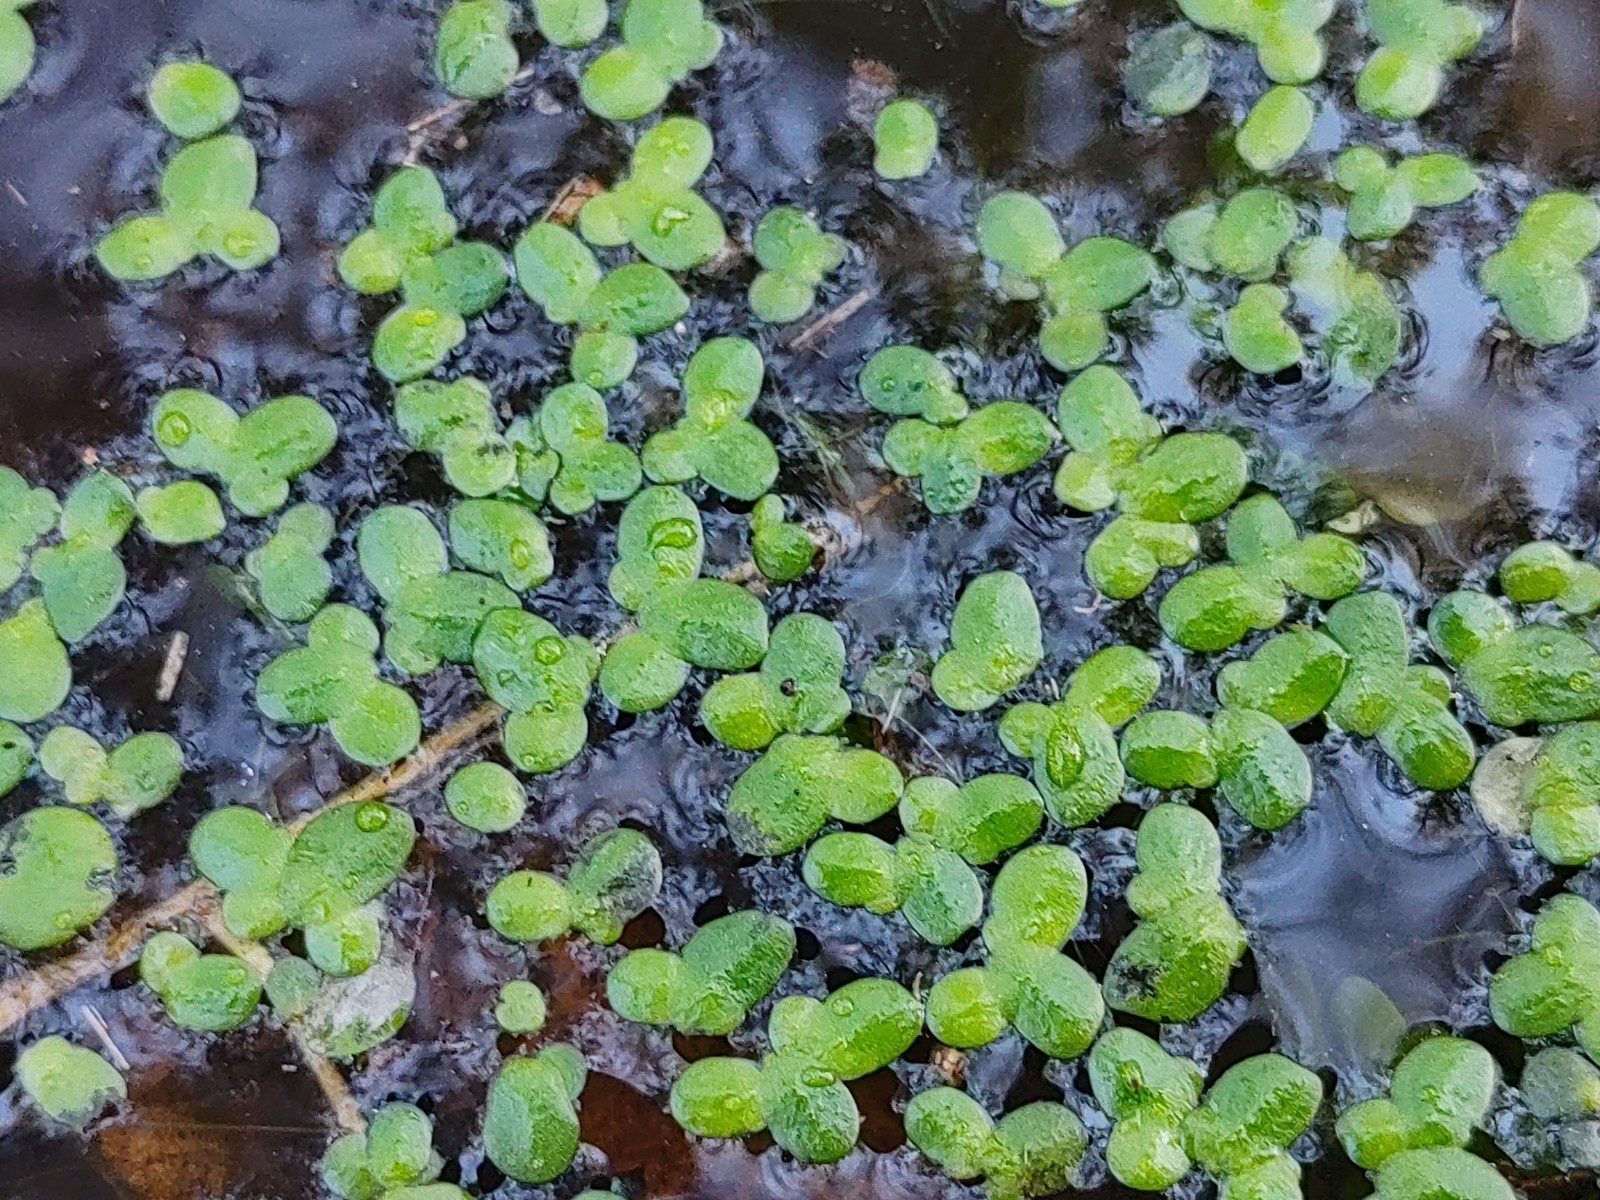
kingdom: Plantae
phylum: Tracheophyta
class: Liliopsida
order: Alismatales
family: Araceae
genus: Lemna
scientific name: Lemna minor
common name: Common duckweed
